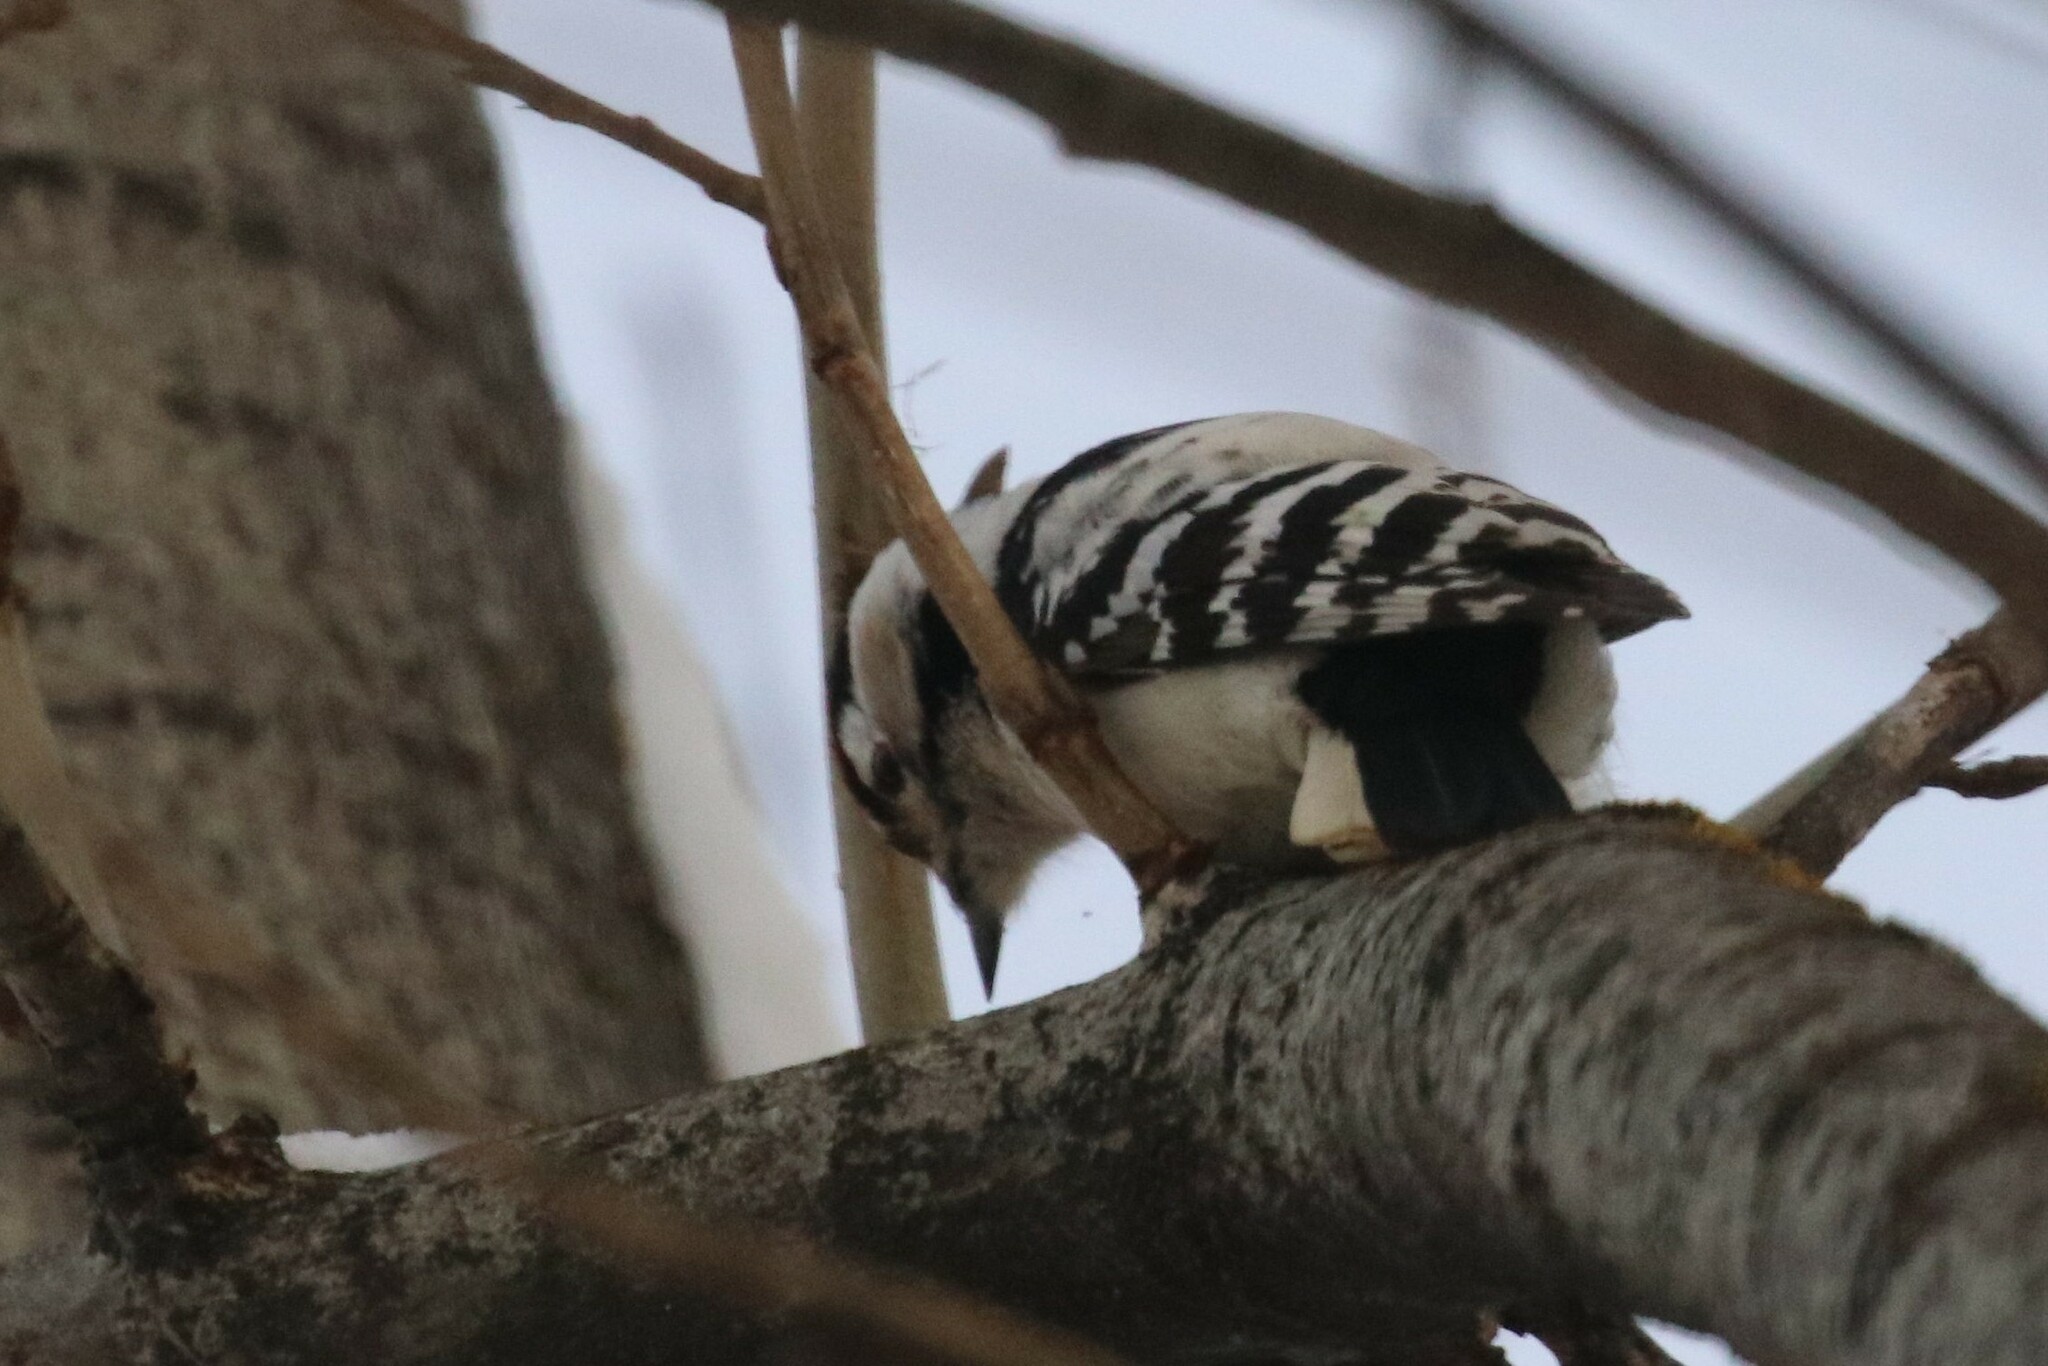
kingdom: Animalia
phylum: Chordata
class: Aves
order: Piciformes
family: Picidae
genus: Dryobates
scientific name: Dryobates minor
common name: Lesser spotted woodpecker
